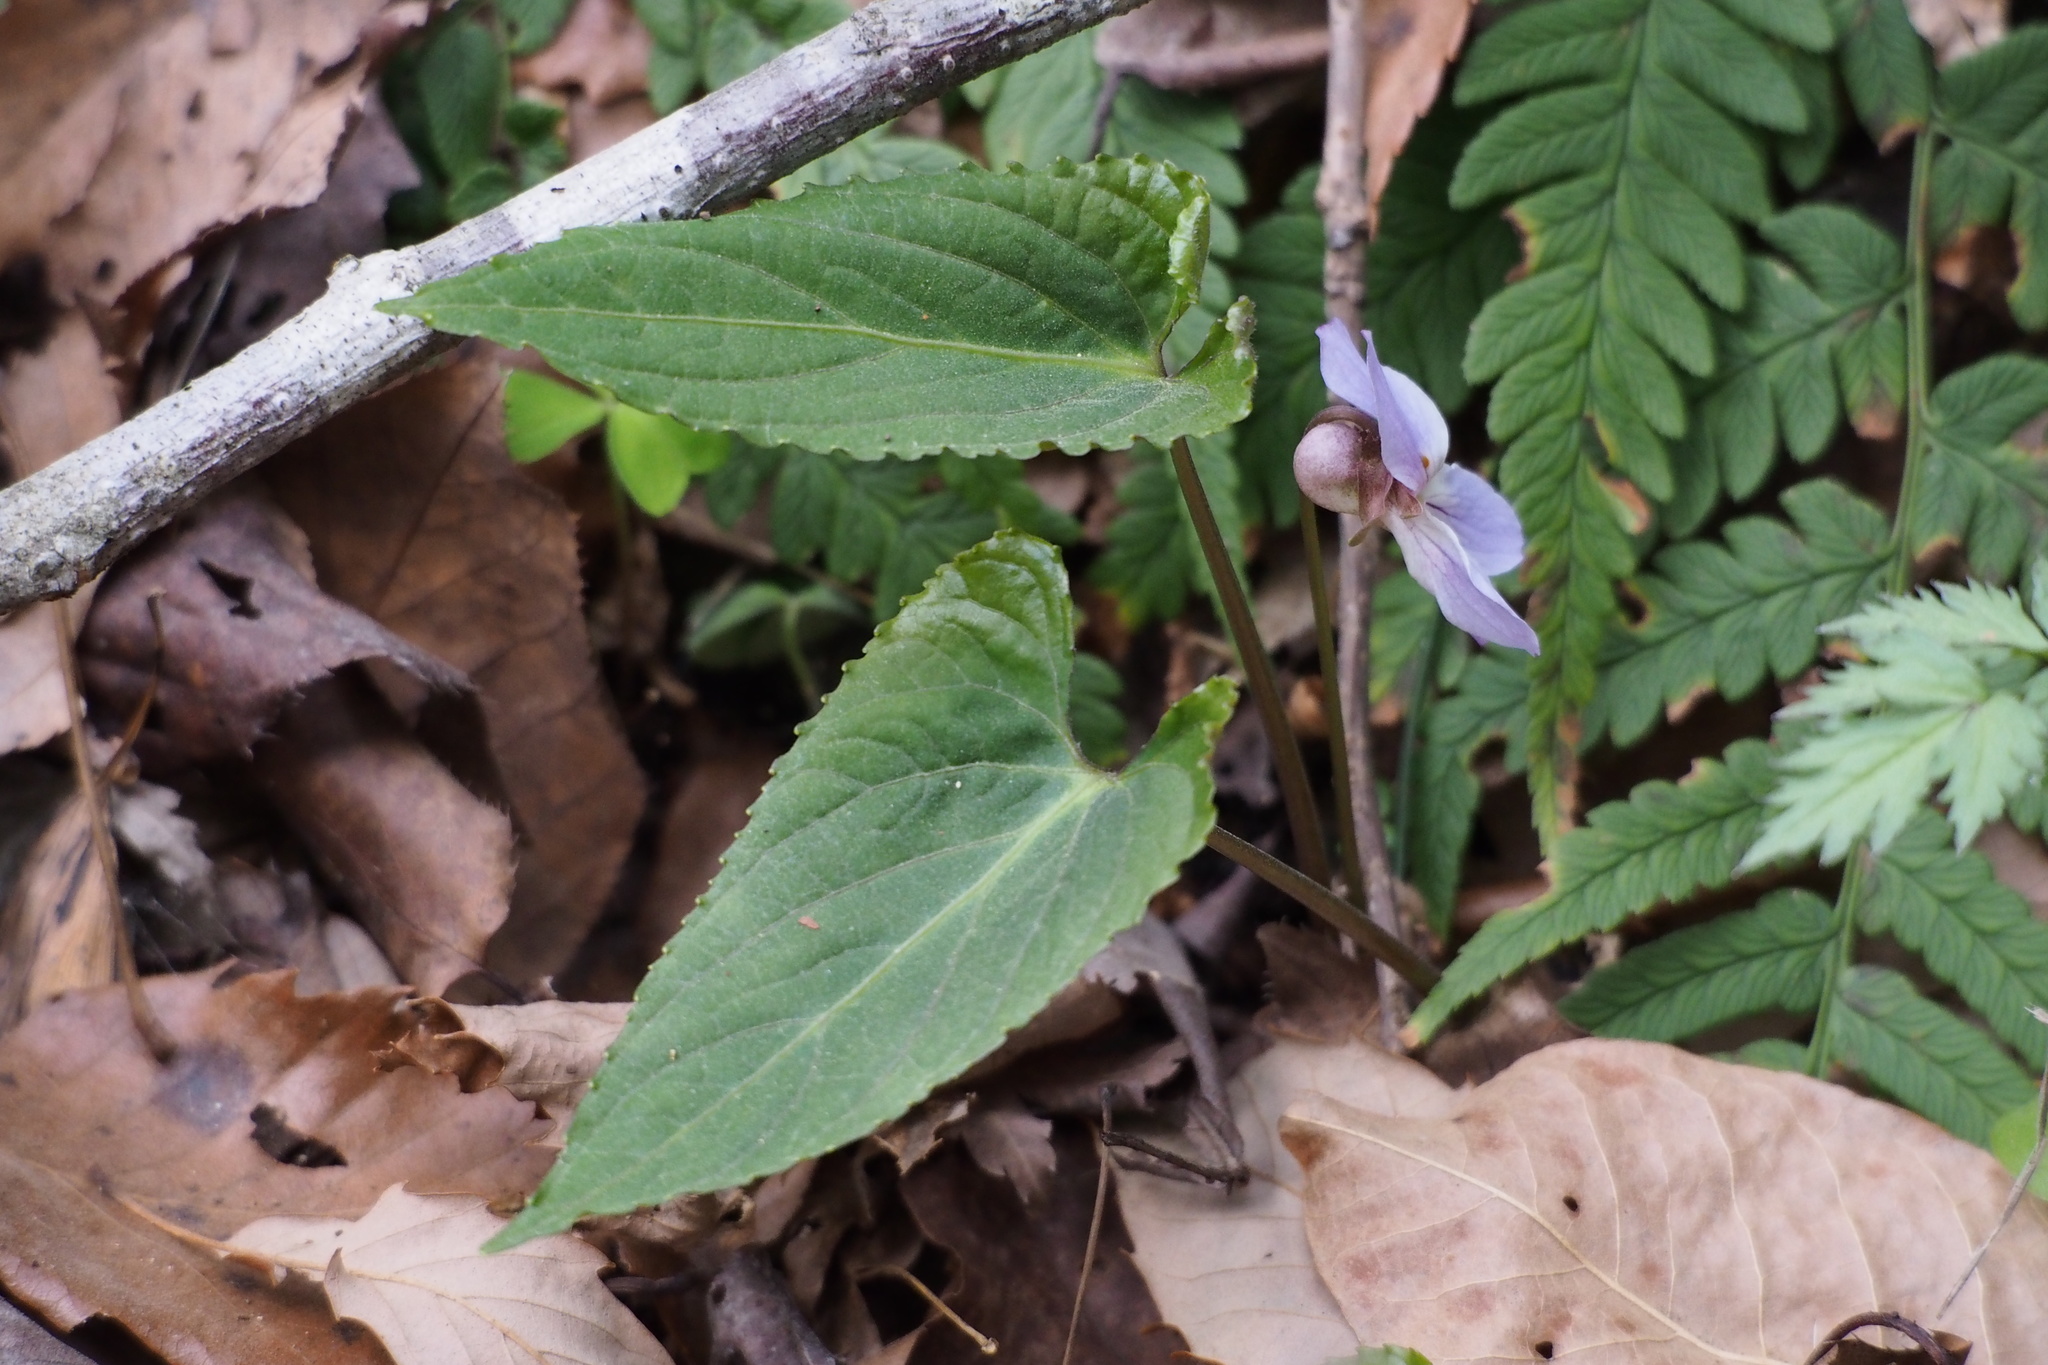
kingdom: Plantae
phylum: Tracheophyta
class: Magnoliopsida
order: Malpighiales
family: Violaceae
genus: Viola
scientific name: Viola bissetii
